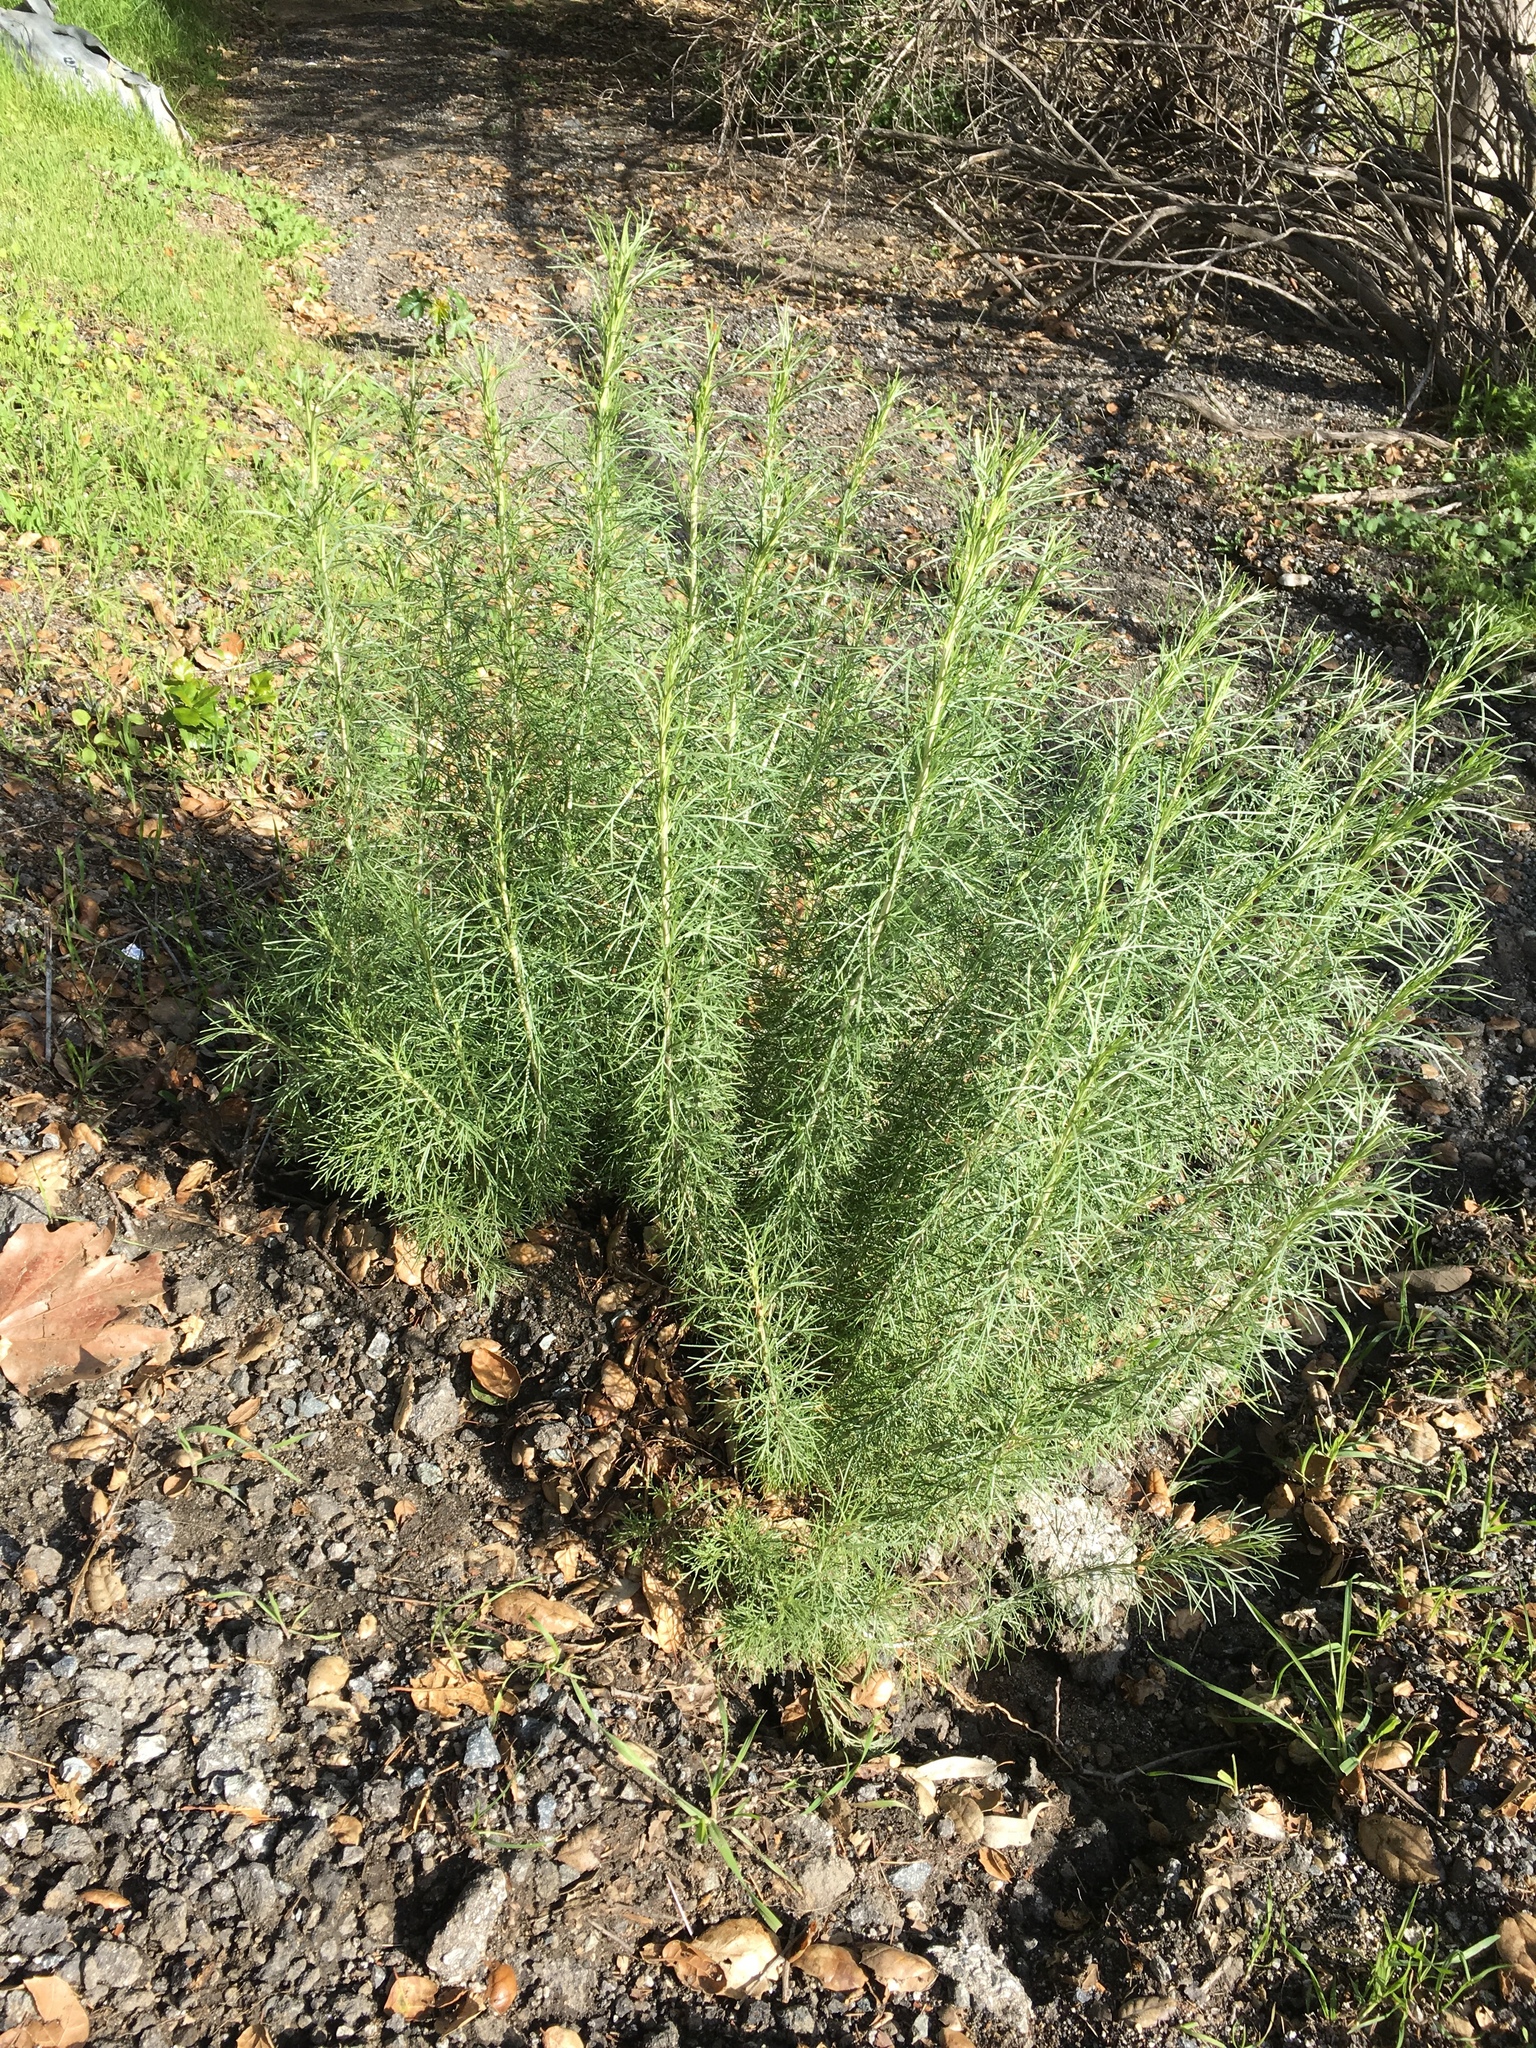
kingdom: Plantae
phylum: Tracheophyta
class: Magnoliopsida
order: Asterales
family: Asteraceae
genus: Artemisia
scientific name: Artemisia californica
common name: California sagebrush
